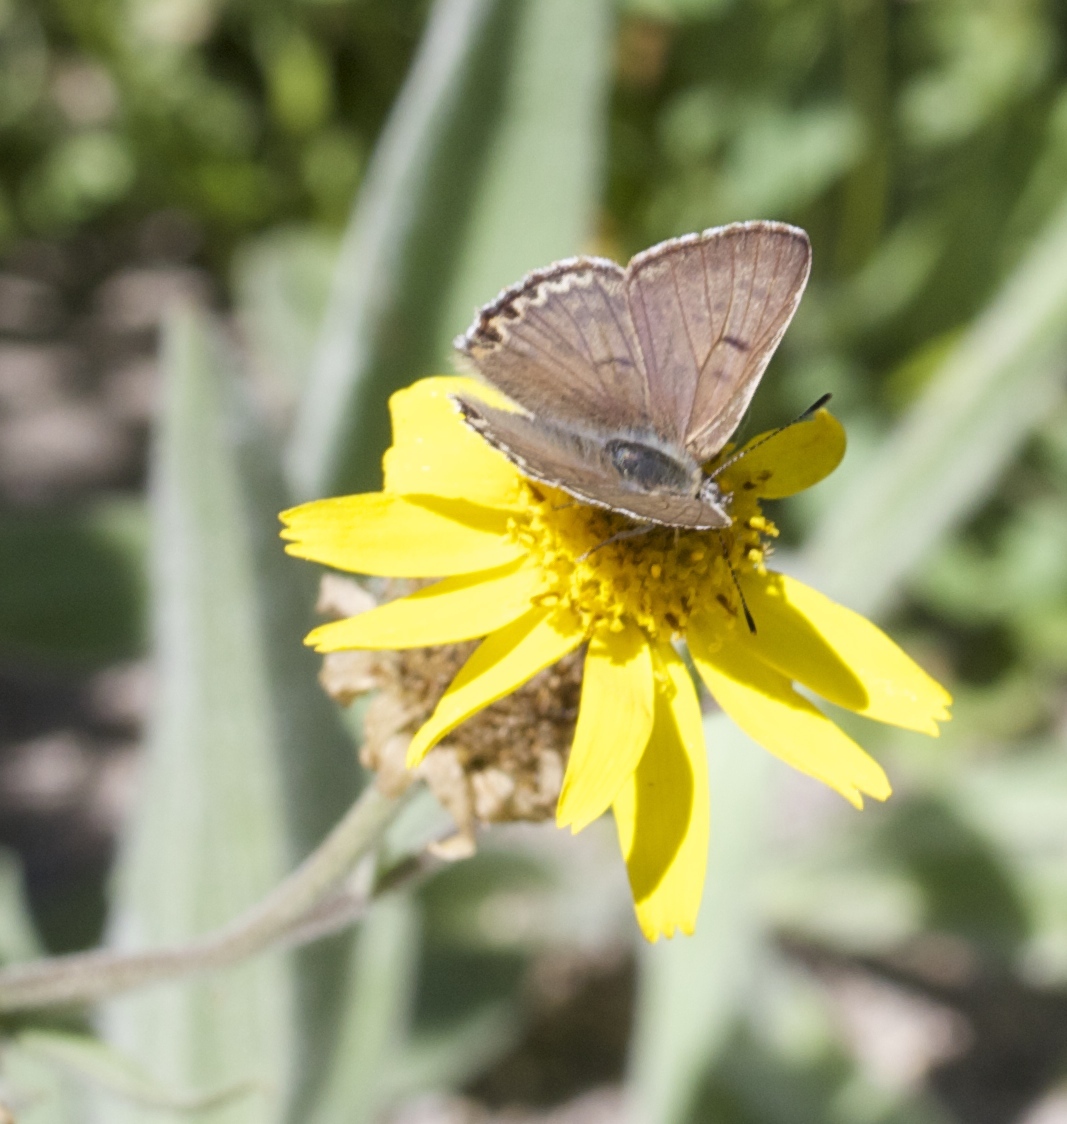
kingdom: Animalia
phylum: Arthropoda
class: Insecta
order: Lepidoptera
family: Lycaenidae
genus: Tharsalea
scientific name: Tharsalea editha
